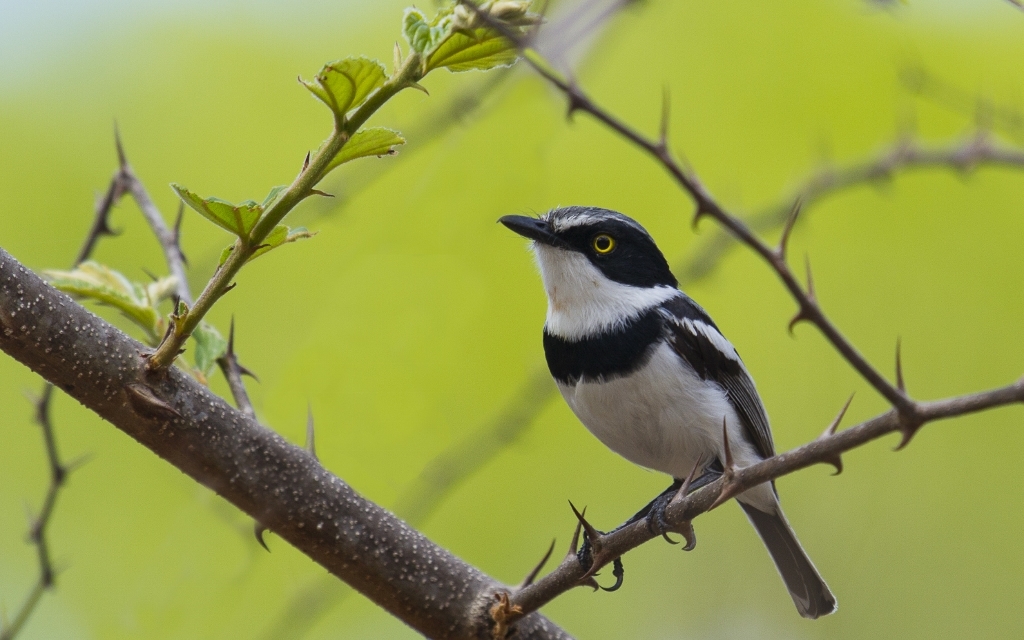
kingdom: Animalia
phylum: Chordata
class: Aves
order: Passeriformes
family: Platysteiridae
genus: Batis
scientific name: Batis soror
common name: Pale batis
